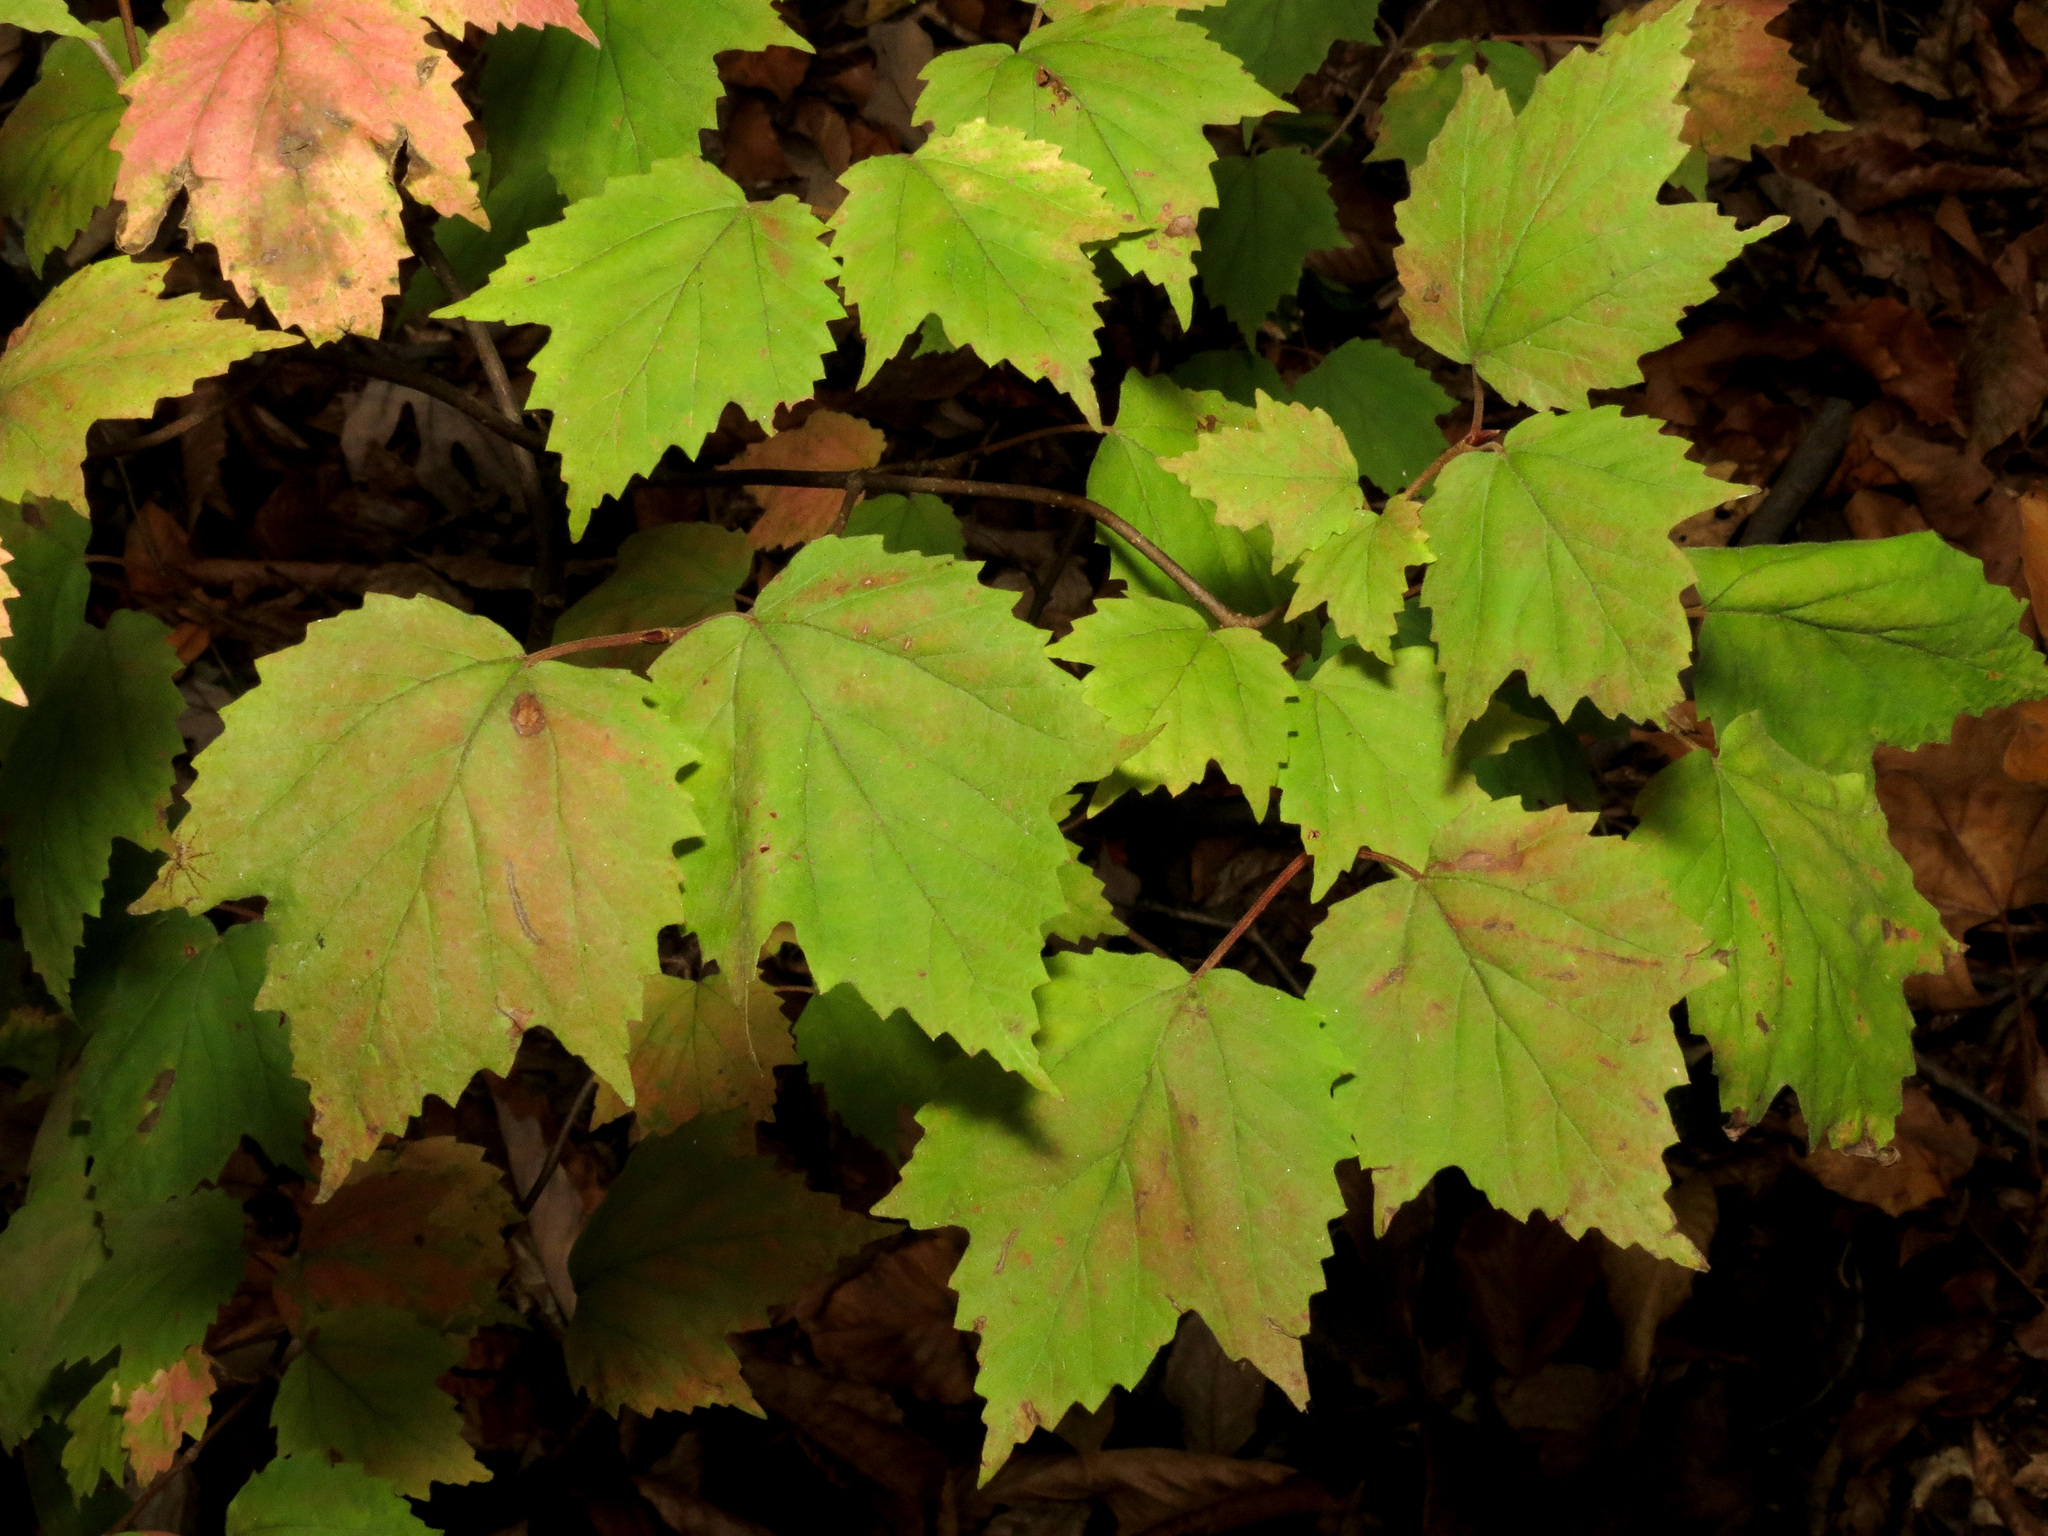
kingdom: Plantae
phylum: Tracheophyta
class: Magnoliopsida
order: Dipsacales
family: Viburnaceae
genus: Viburnum
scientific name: Viburnum acerifolium
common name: Dockmackie
